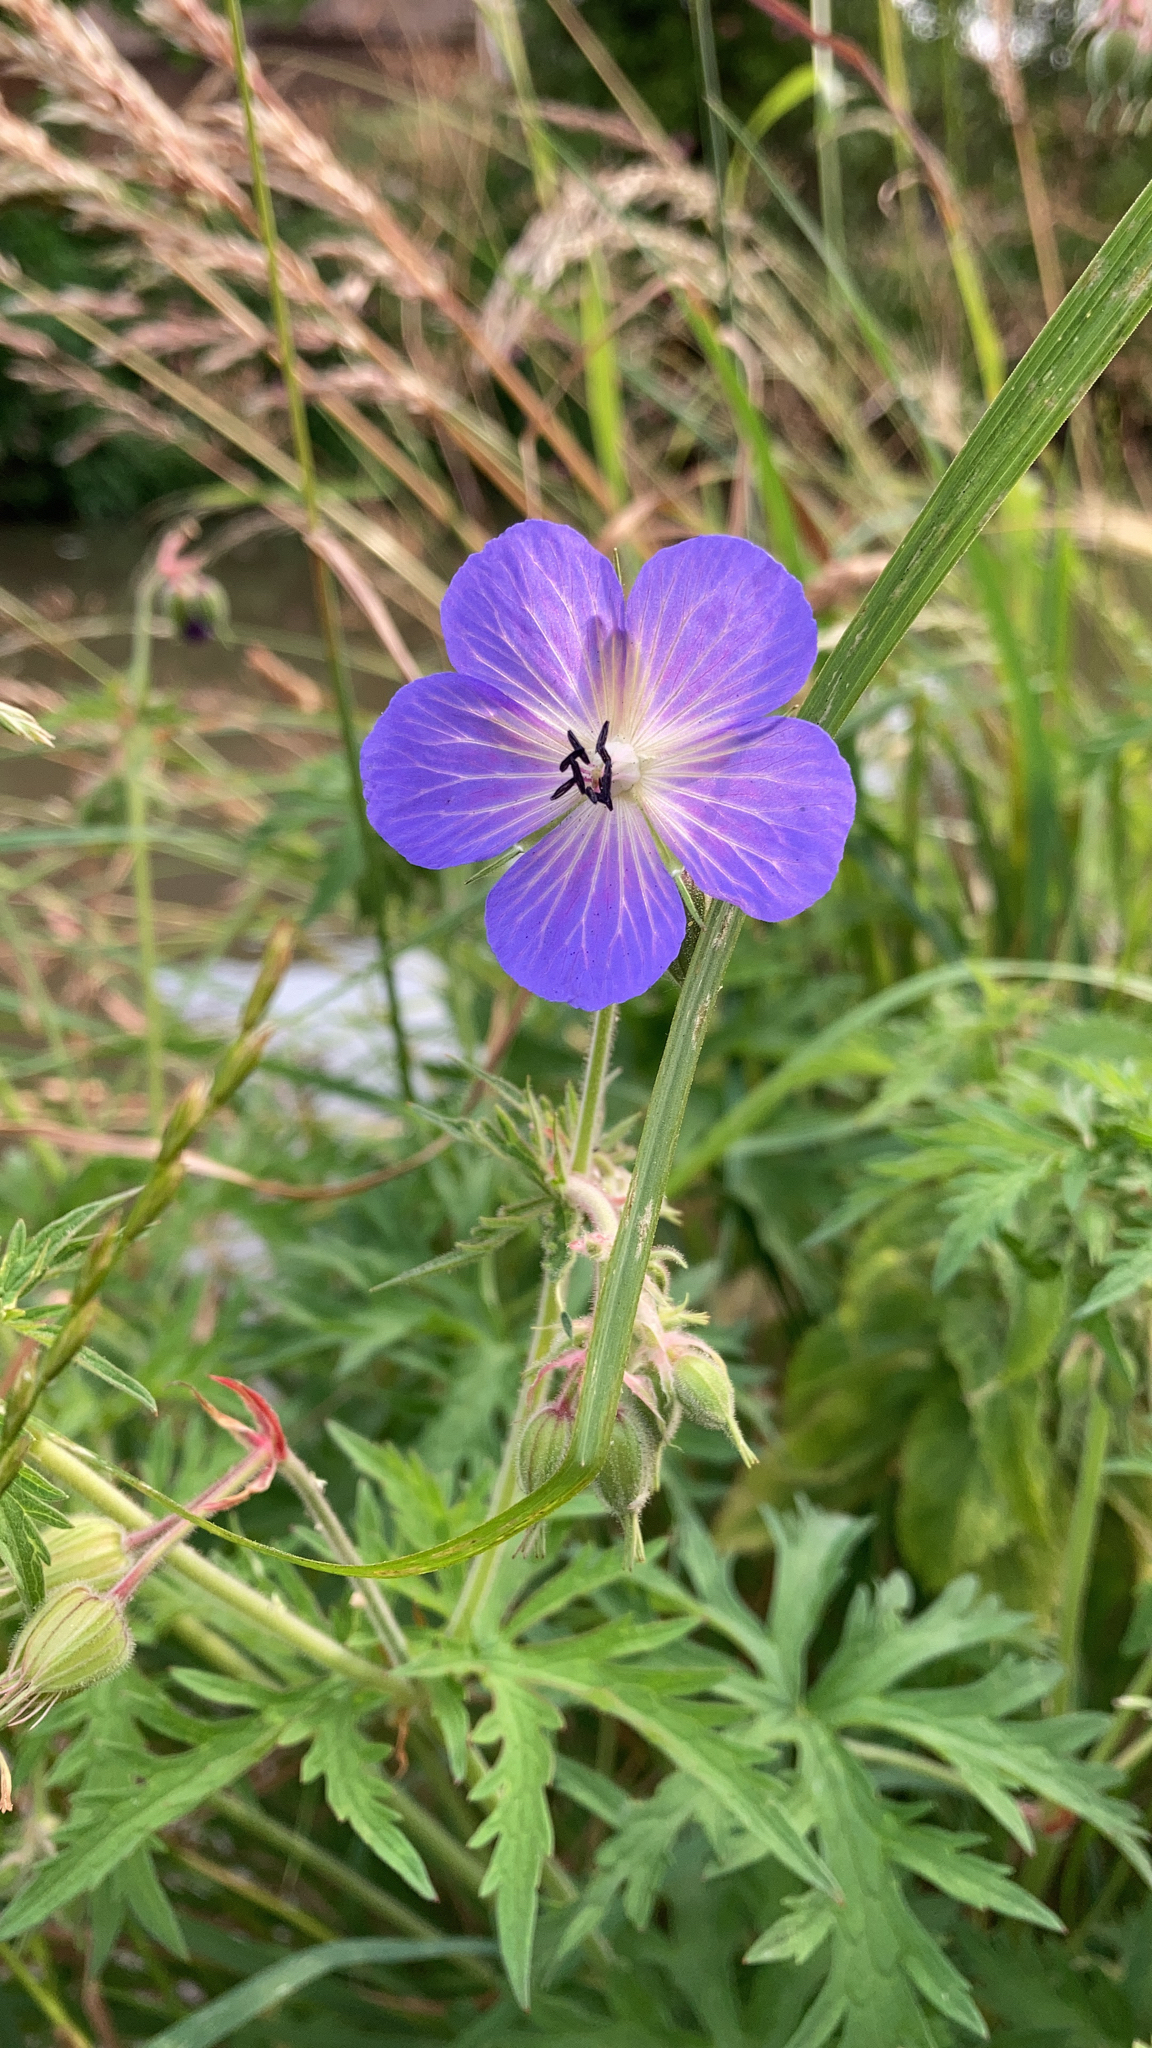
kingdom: Plantae
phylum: Tracheophyta
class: Magnoliopsida
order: Geraniales
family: Geraniaceae
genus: Geranium
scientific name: Geranium pratense
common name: Meadow crane's-bill
